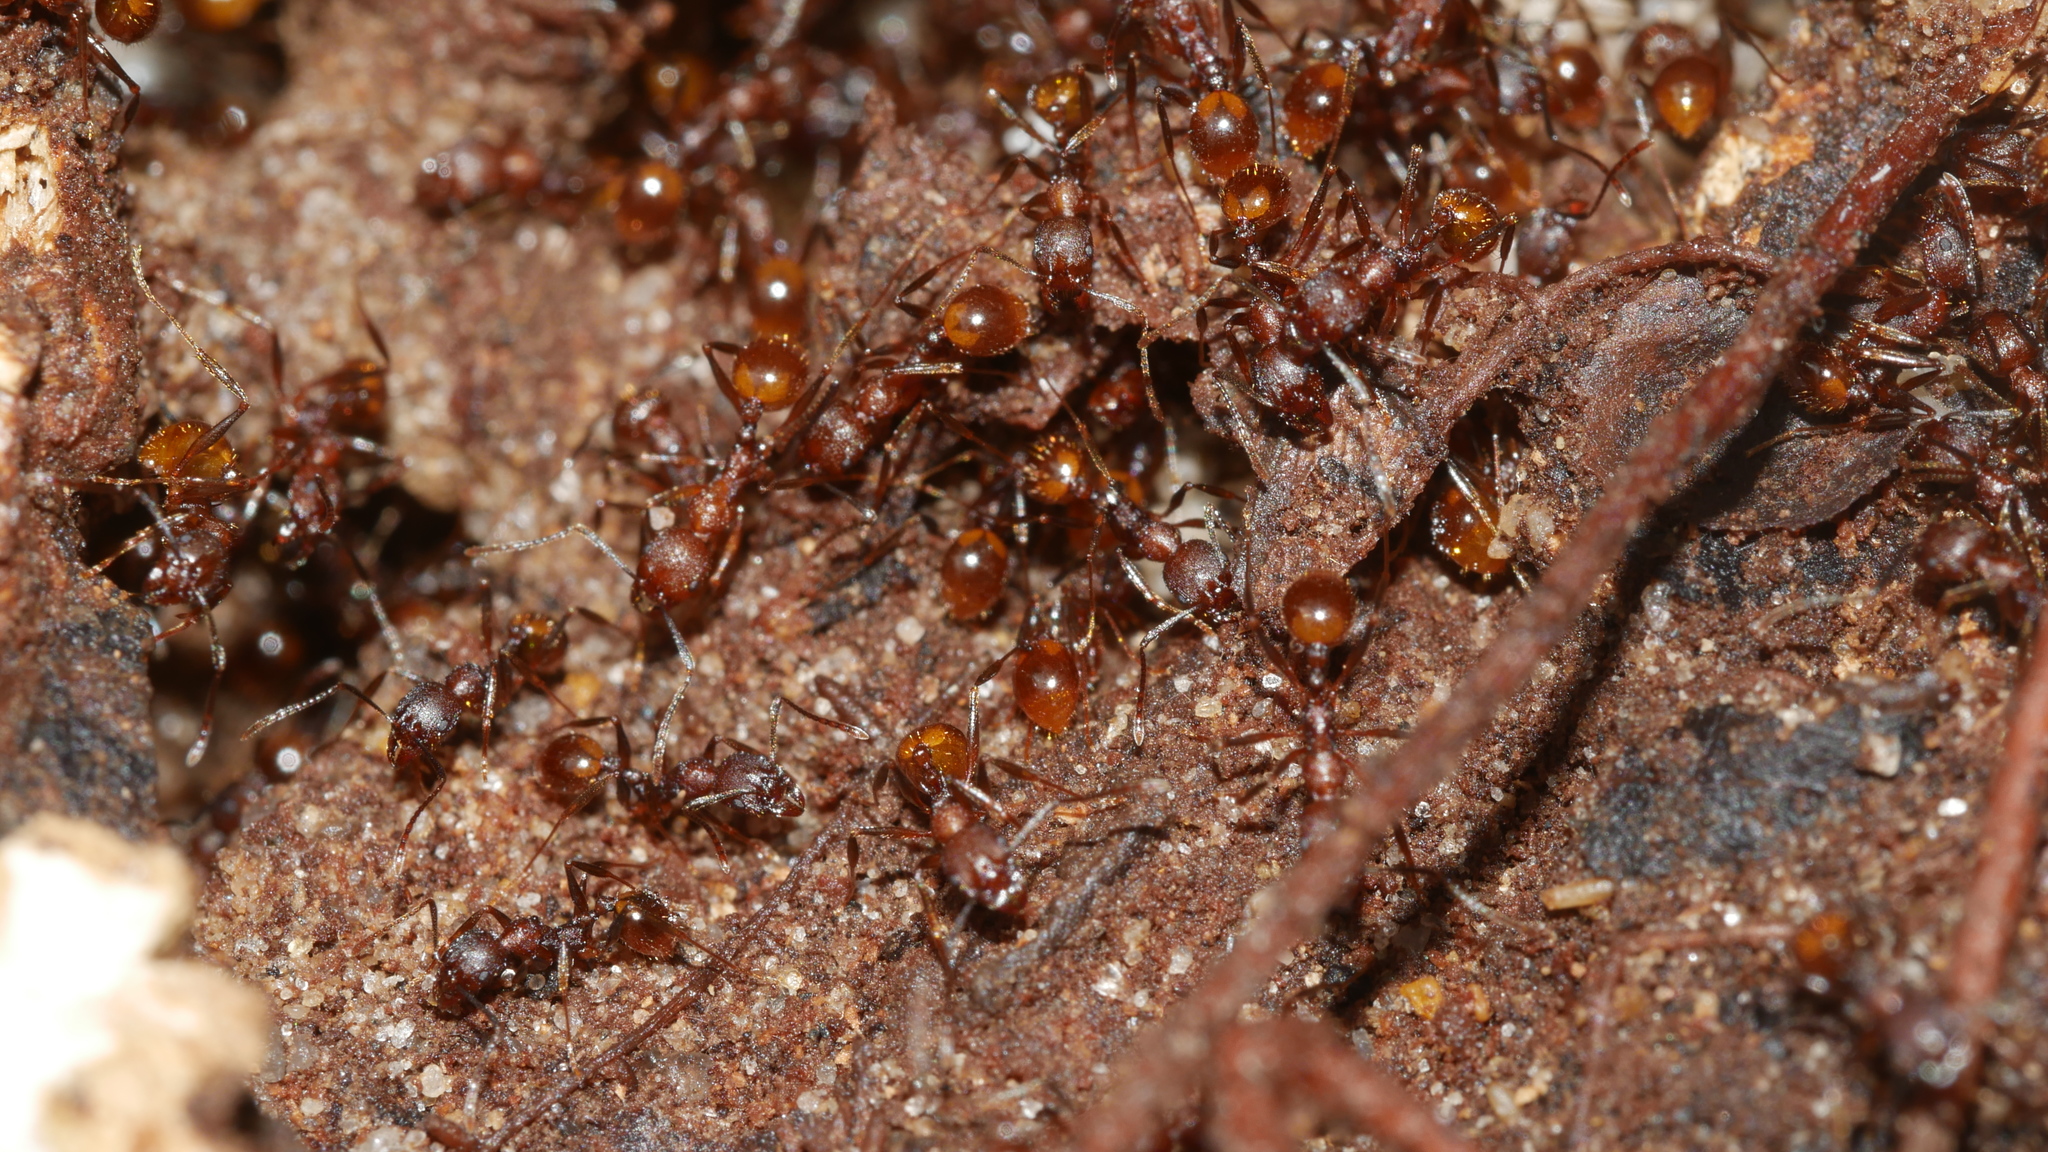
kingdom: Animalia
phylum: Arthropoda
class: Insecta
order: Hymenoptera
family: Formicidae
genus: Aphaenogaster
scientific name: Aphaenogaster fulva
